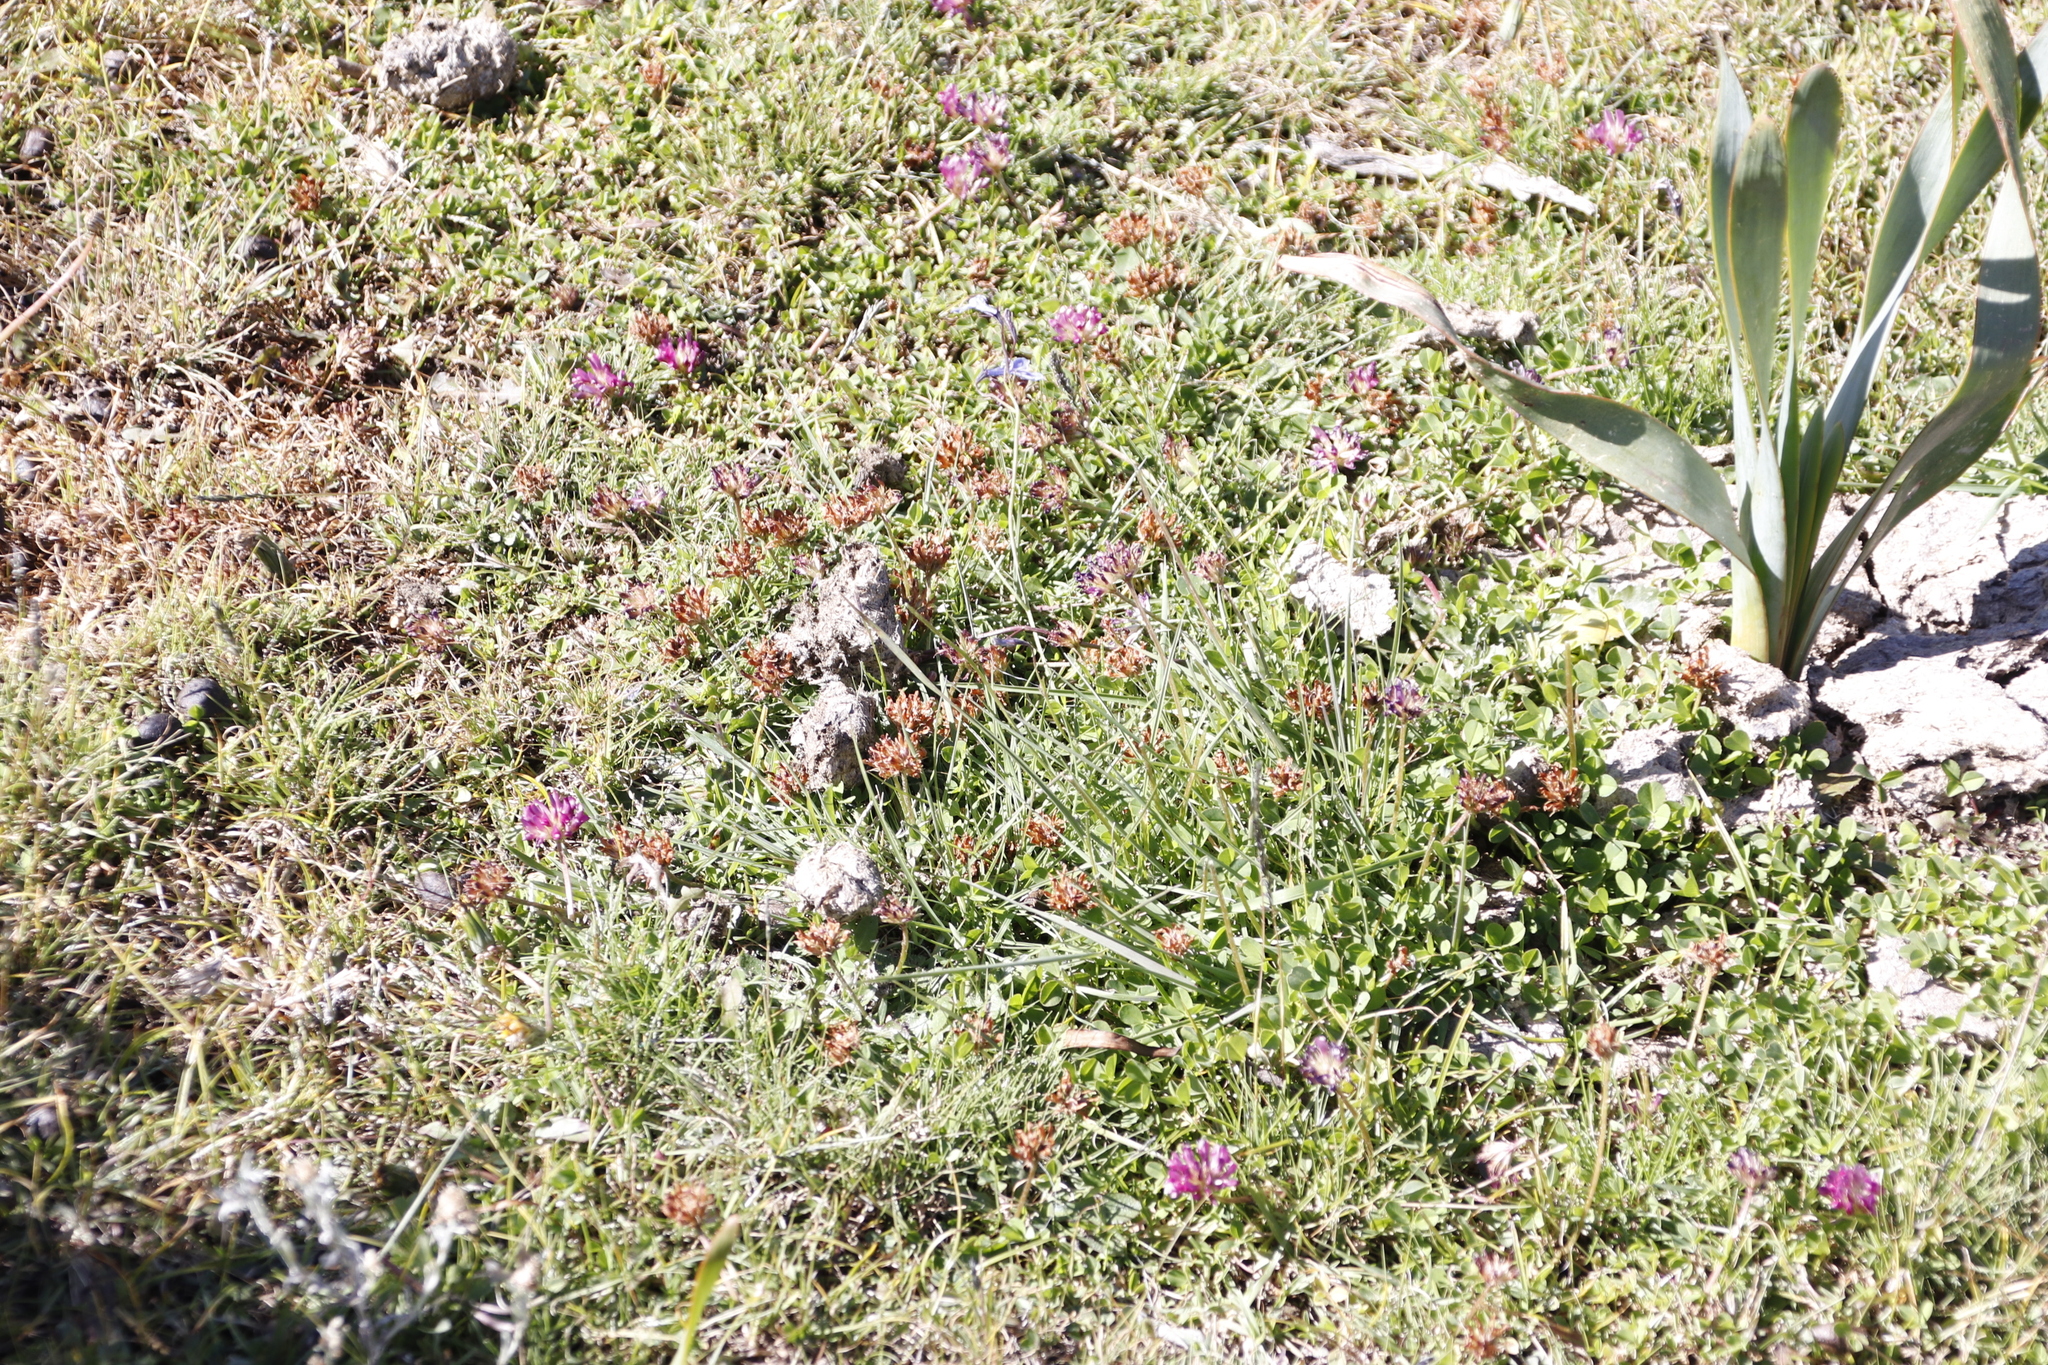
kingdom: Plantae
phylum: Tracheophyta
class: Magnoliopsida
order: Fabales
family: Fabaceae
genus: Trifolium
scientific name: Trifolium burchellianum
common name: Burchell's clover
